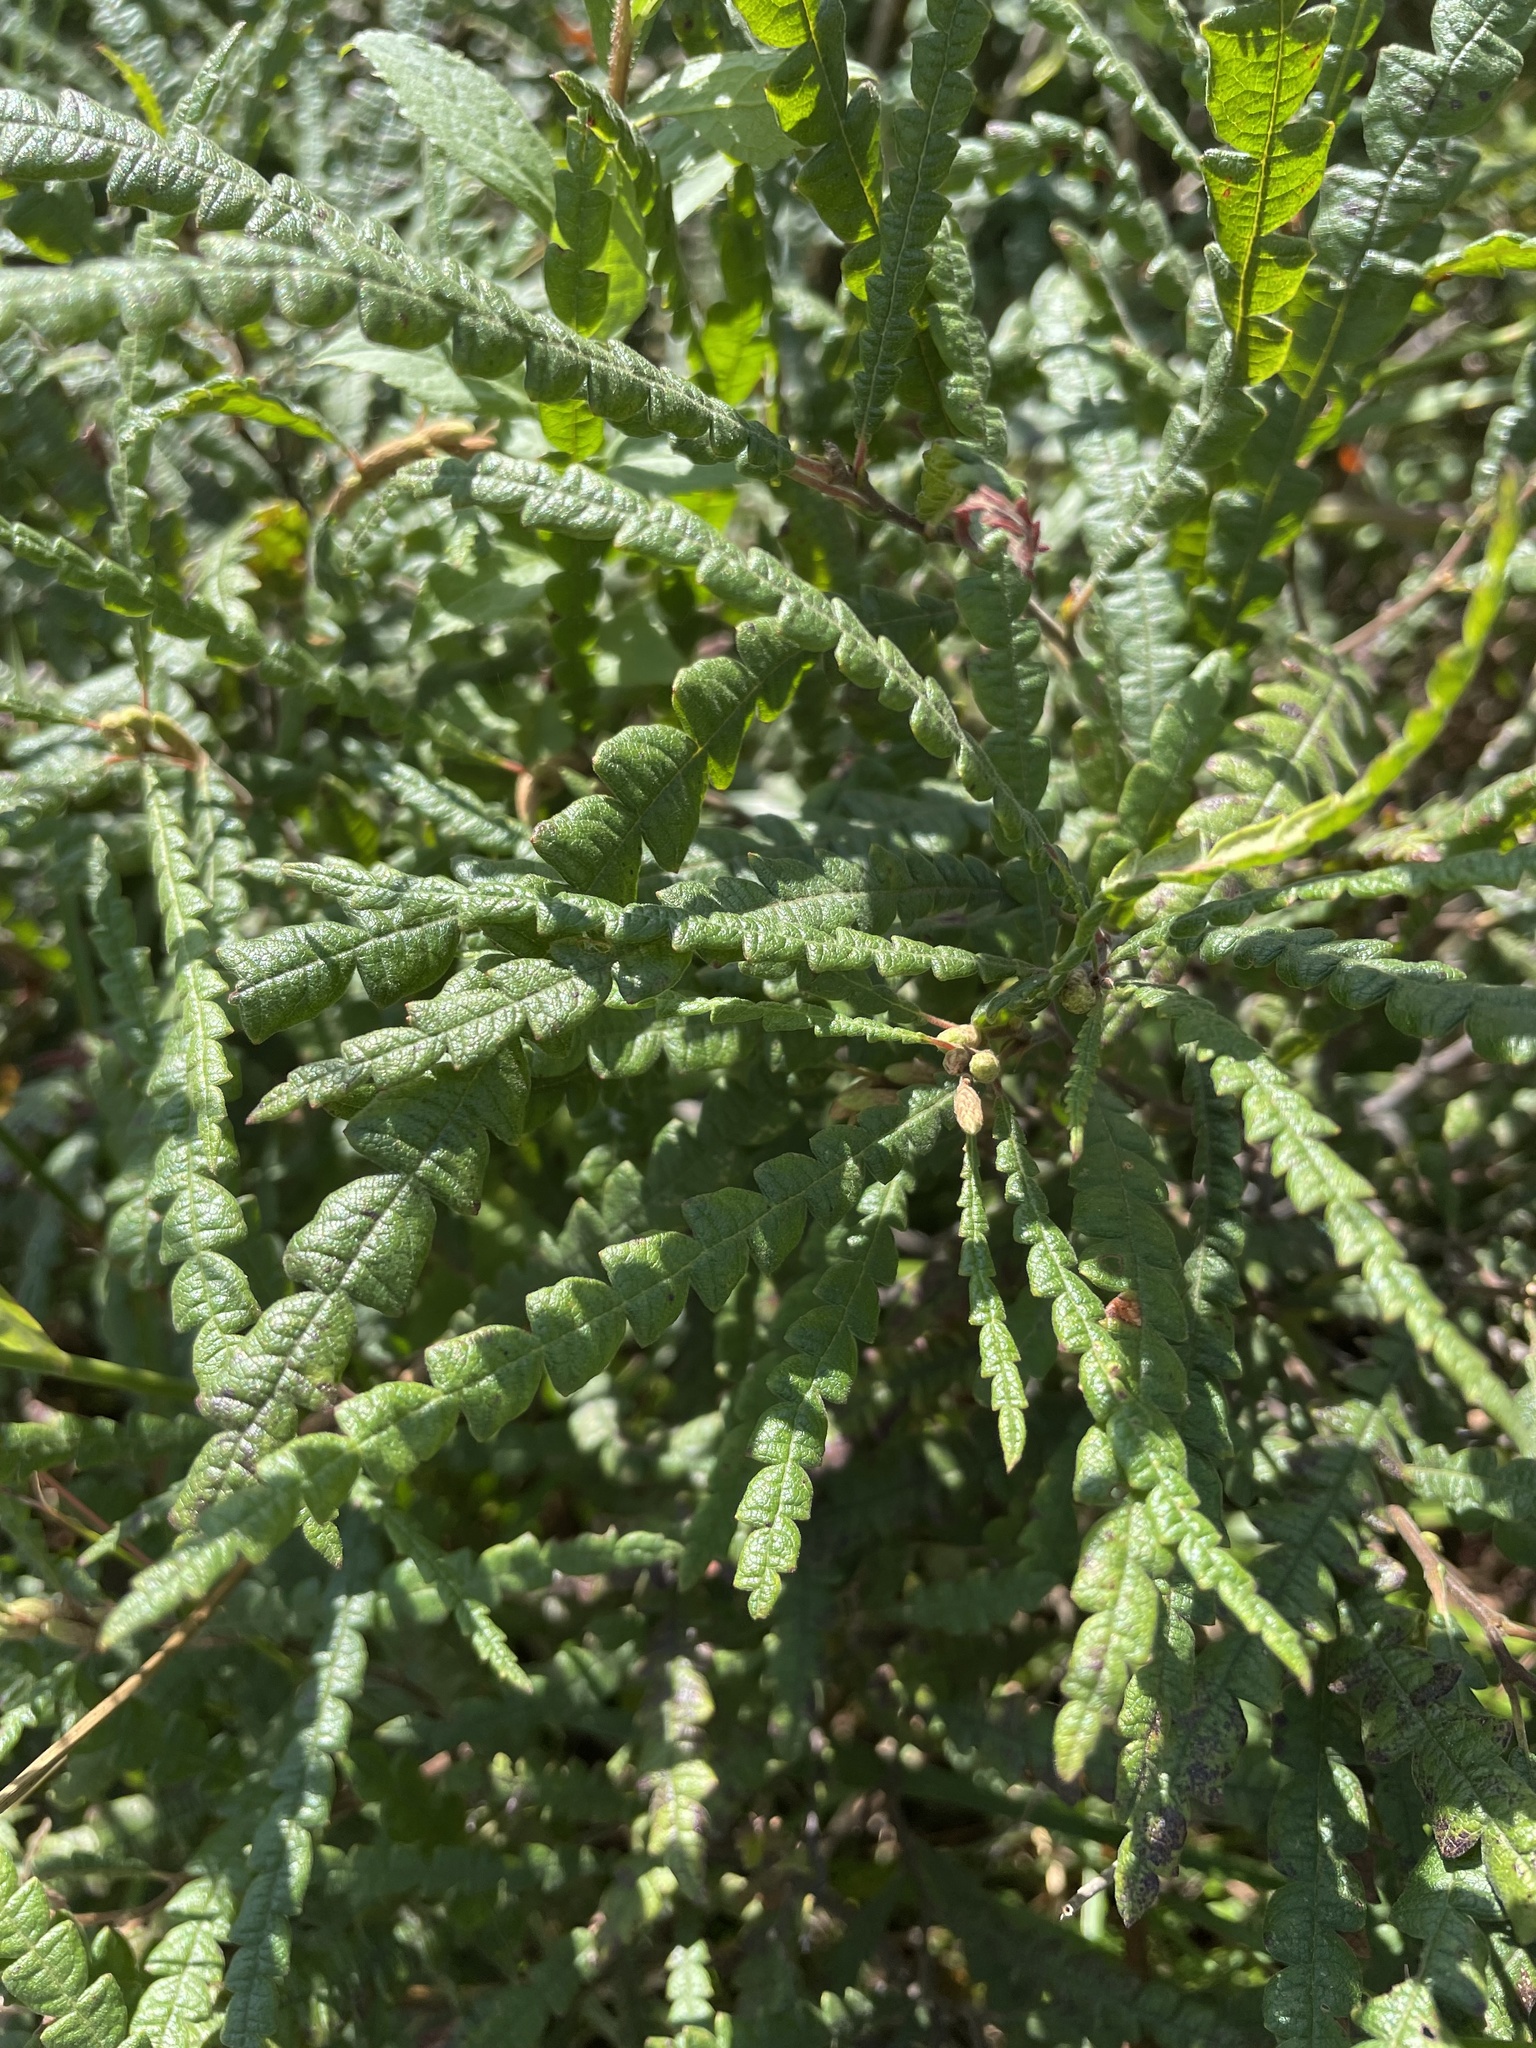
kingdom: Plantae
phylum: Tracheophyta
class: Magnoliopsida
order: Fagales
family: Myricaceae
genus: Comptonia
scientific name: Comptonia peregrina
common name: Sweet-fern
